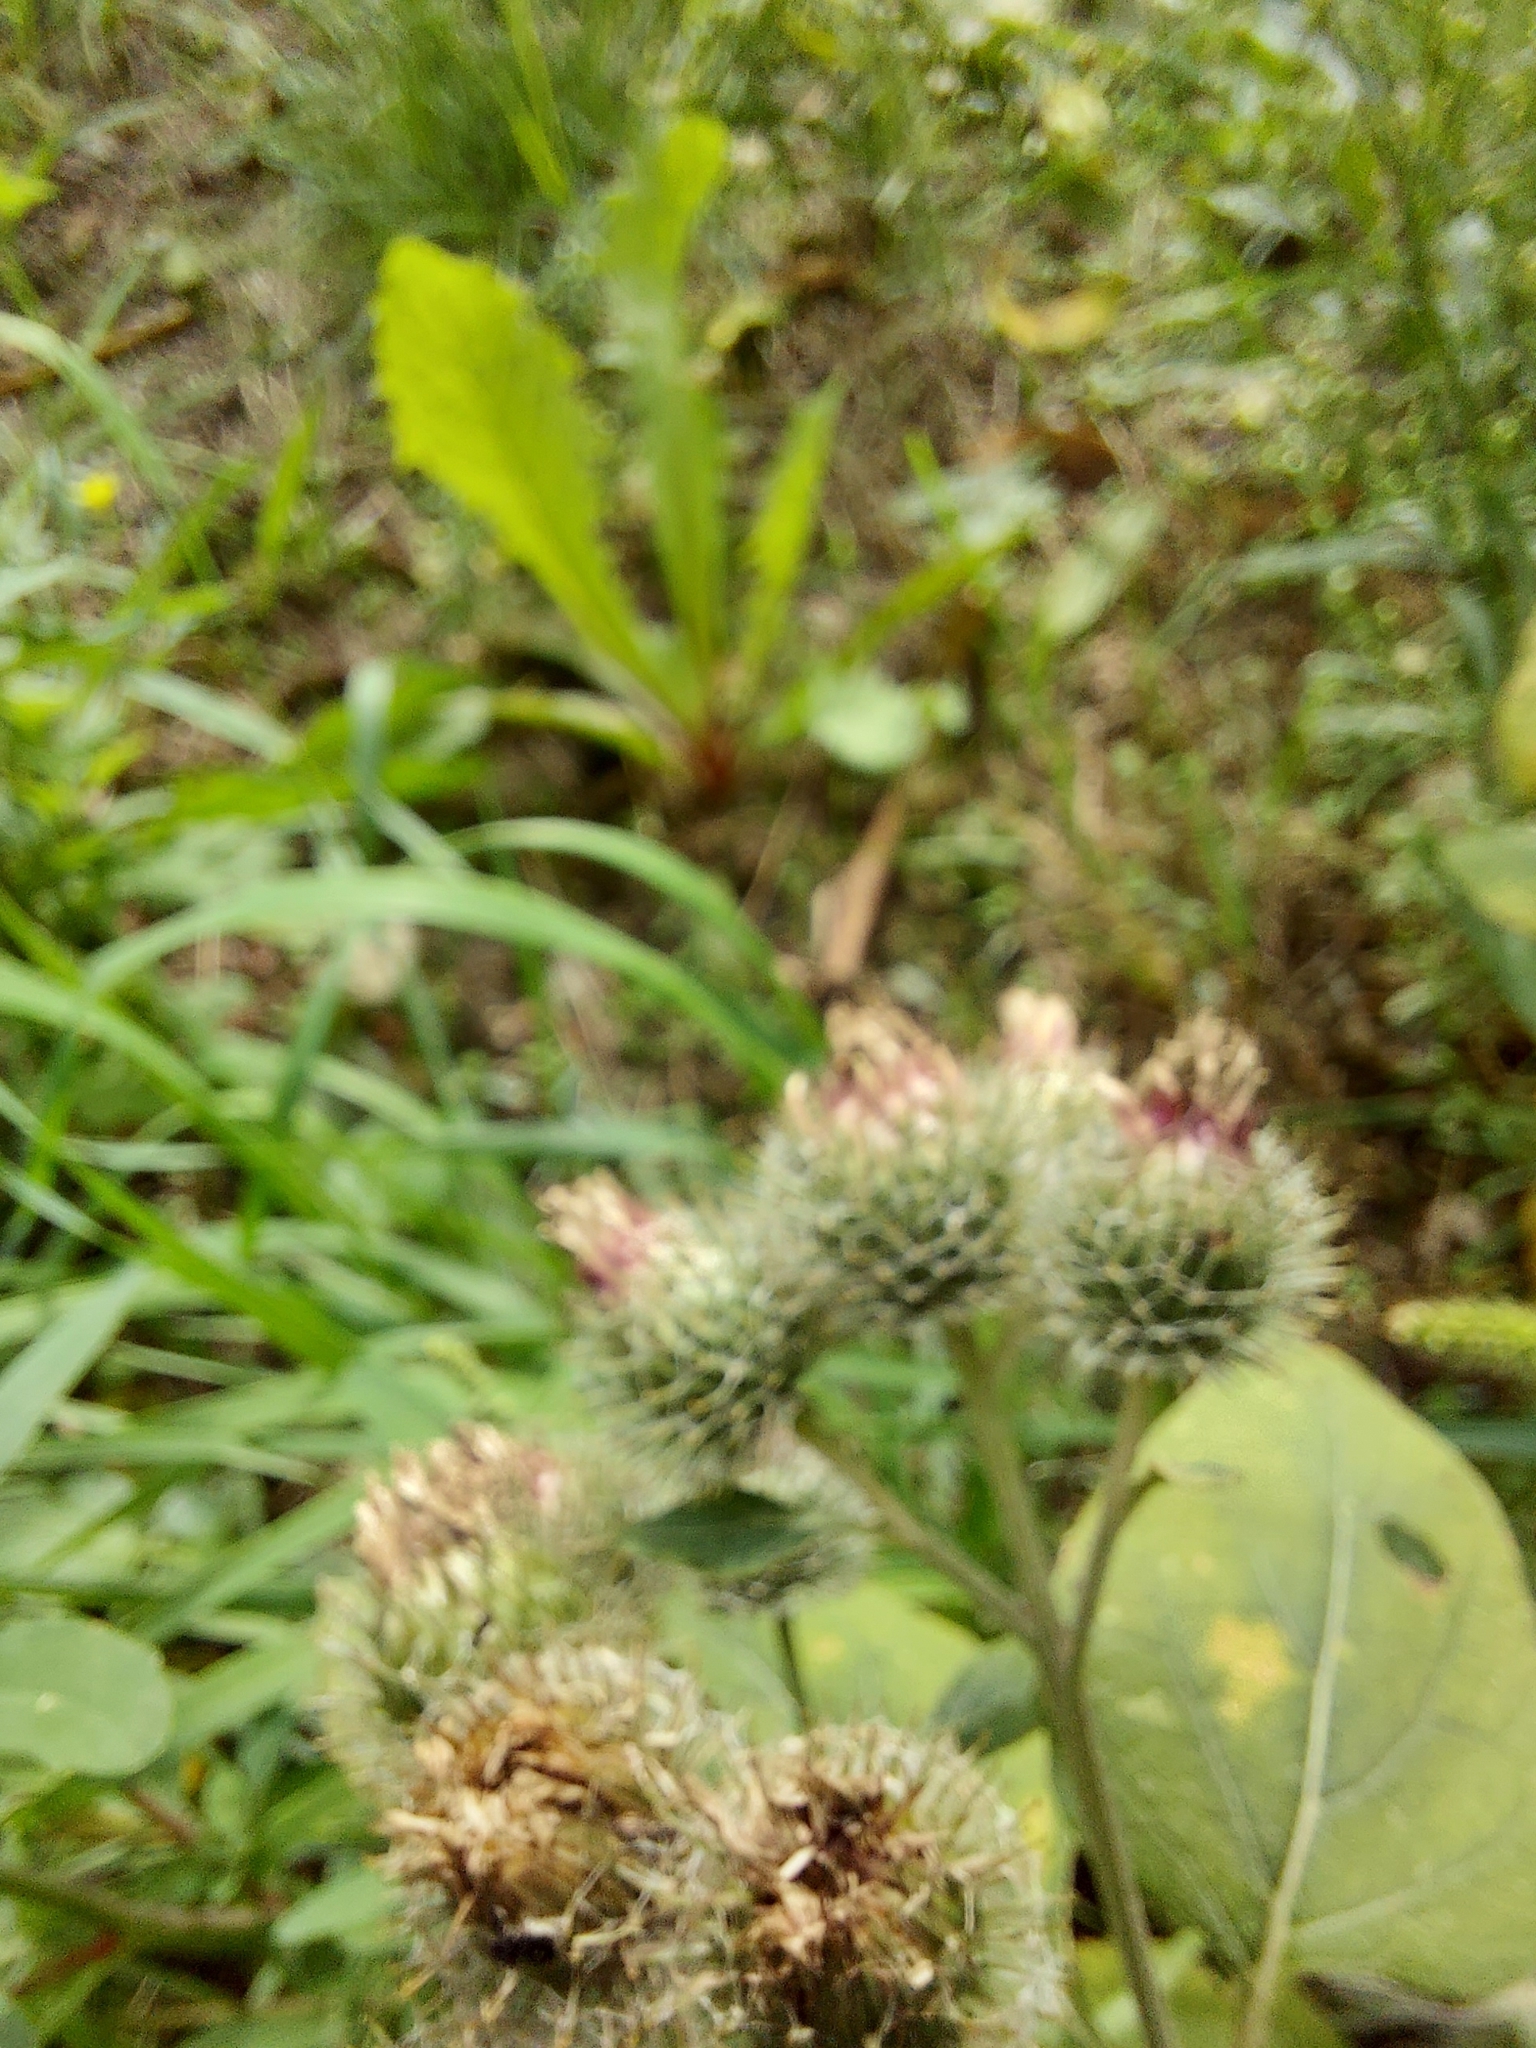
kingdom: Plantae
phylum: Tracheophyta
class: Magnoliopsida
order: Asterales
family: Asteraceae
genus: Arctium
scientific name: Arctium tomentosum
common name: Woolly burdock
